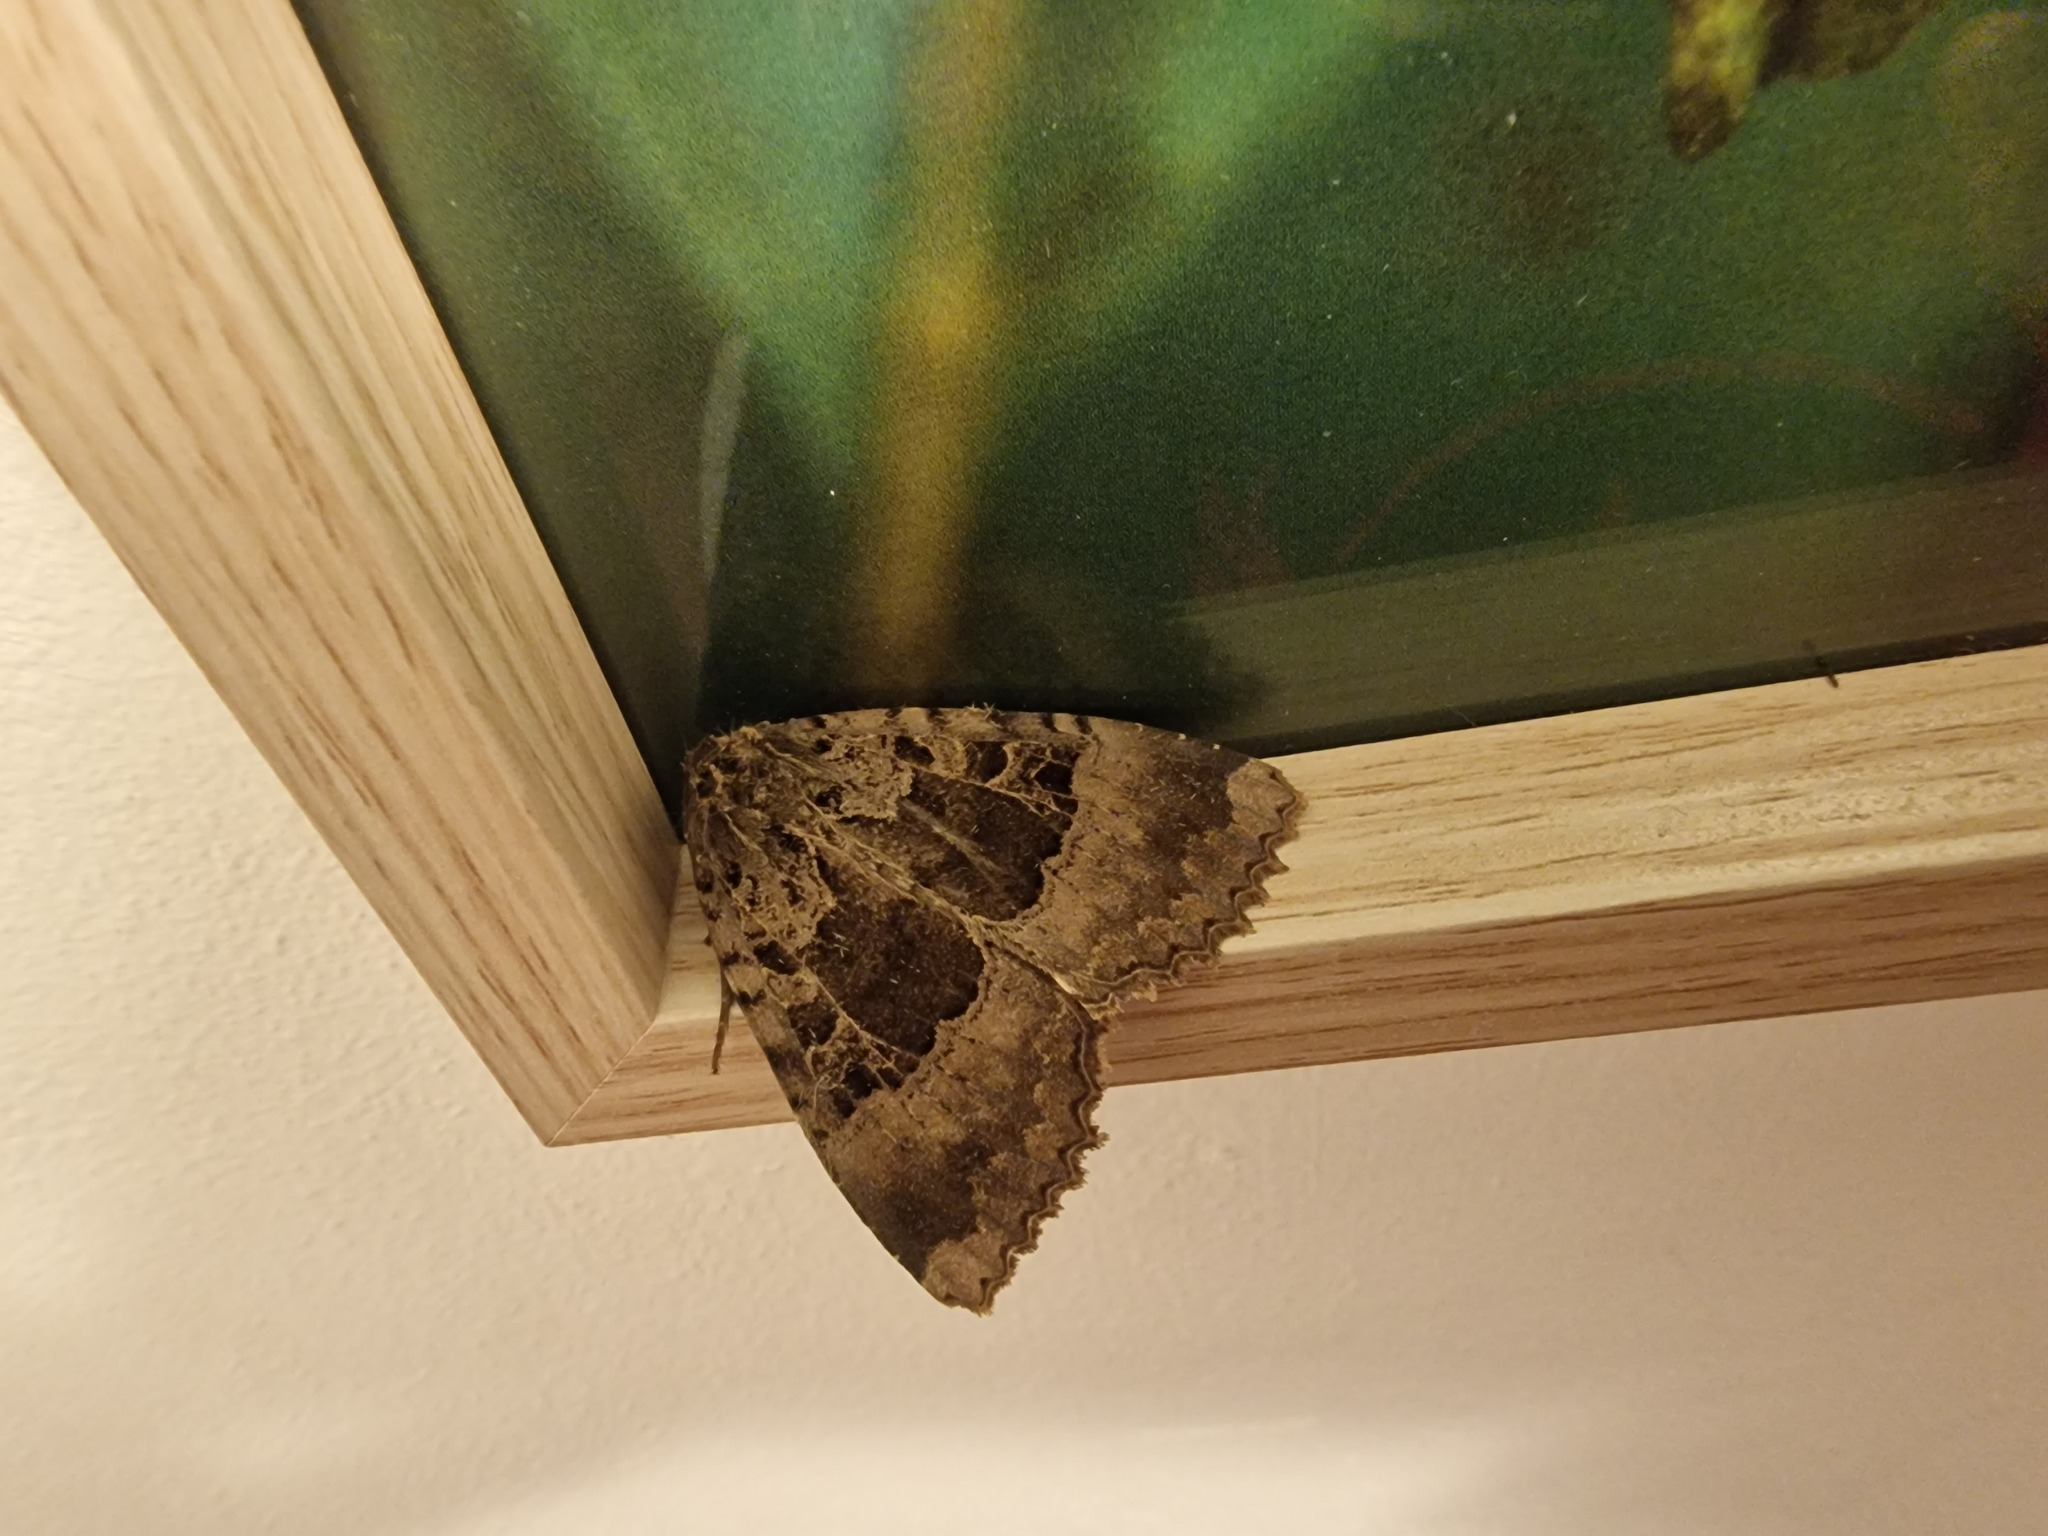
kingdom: Animalia
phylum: Arthropoda
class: Insecta
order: Lepidoptera
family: Noctuidae
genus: Mormo
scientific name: Mormo maura
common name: Old lady
